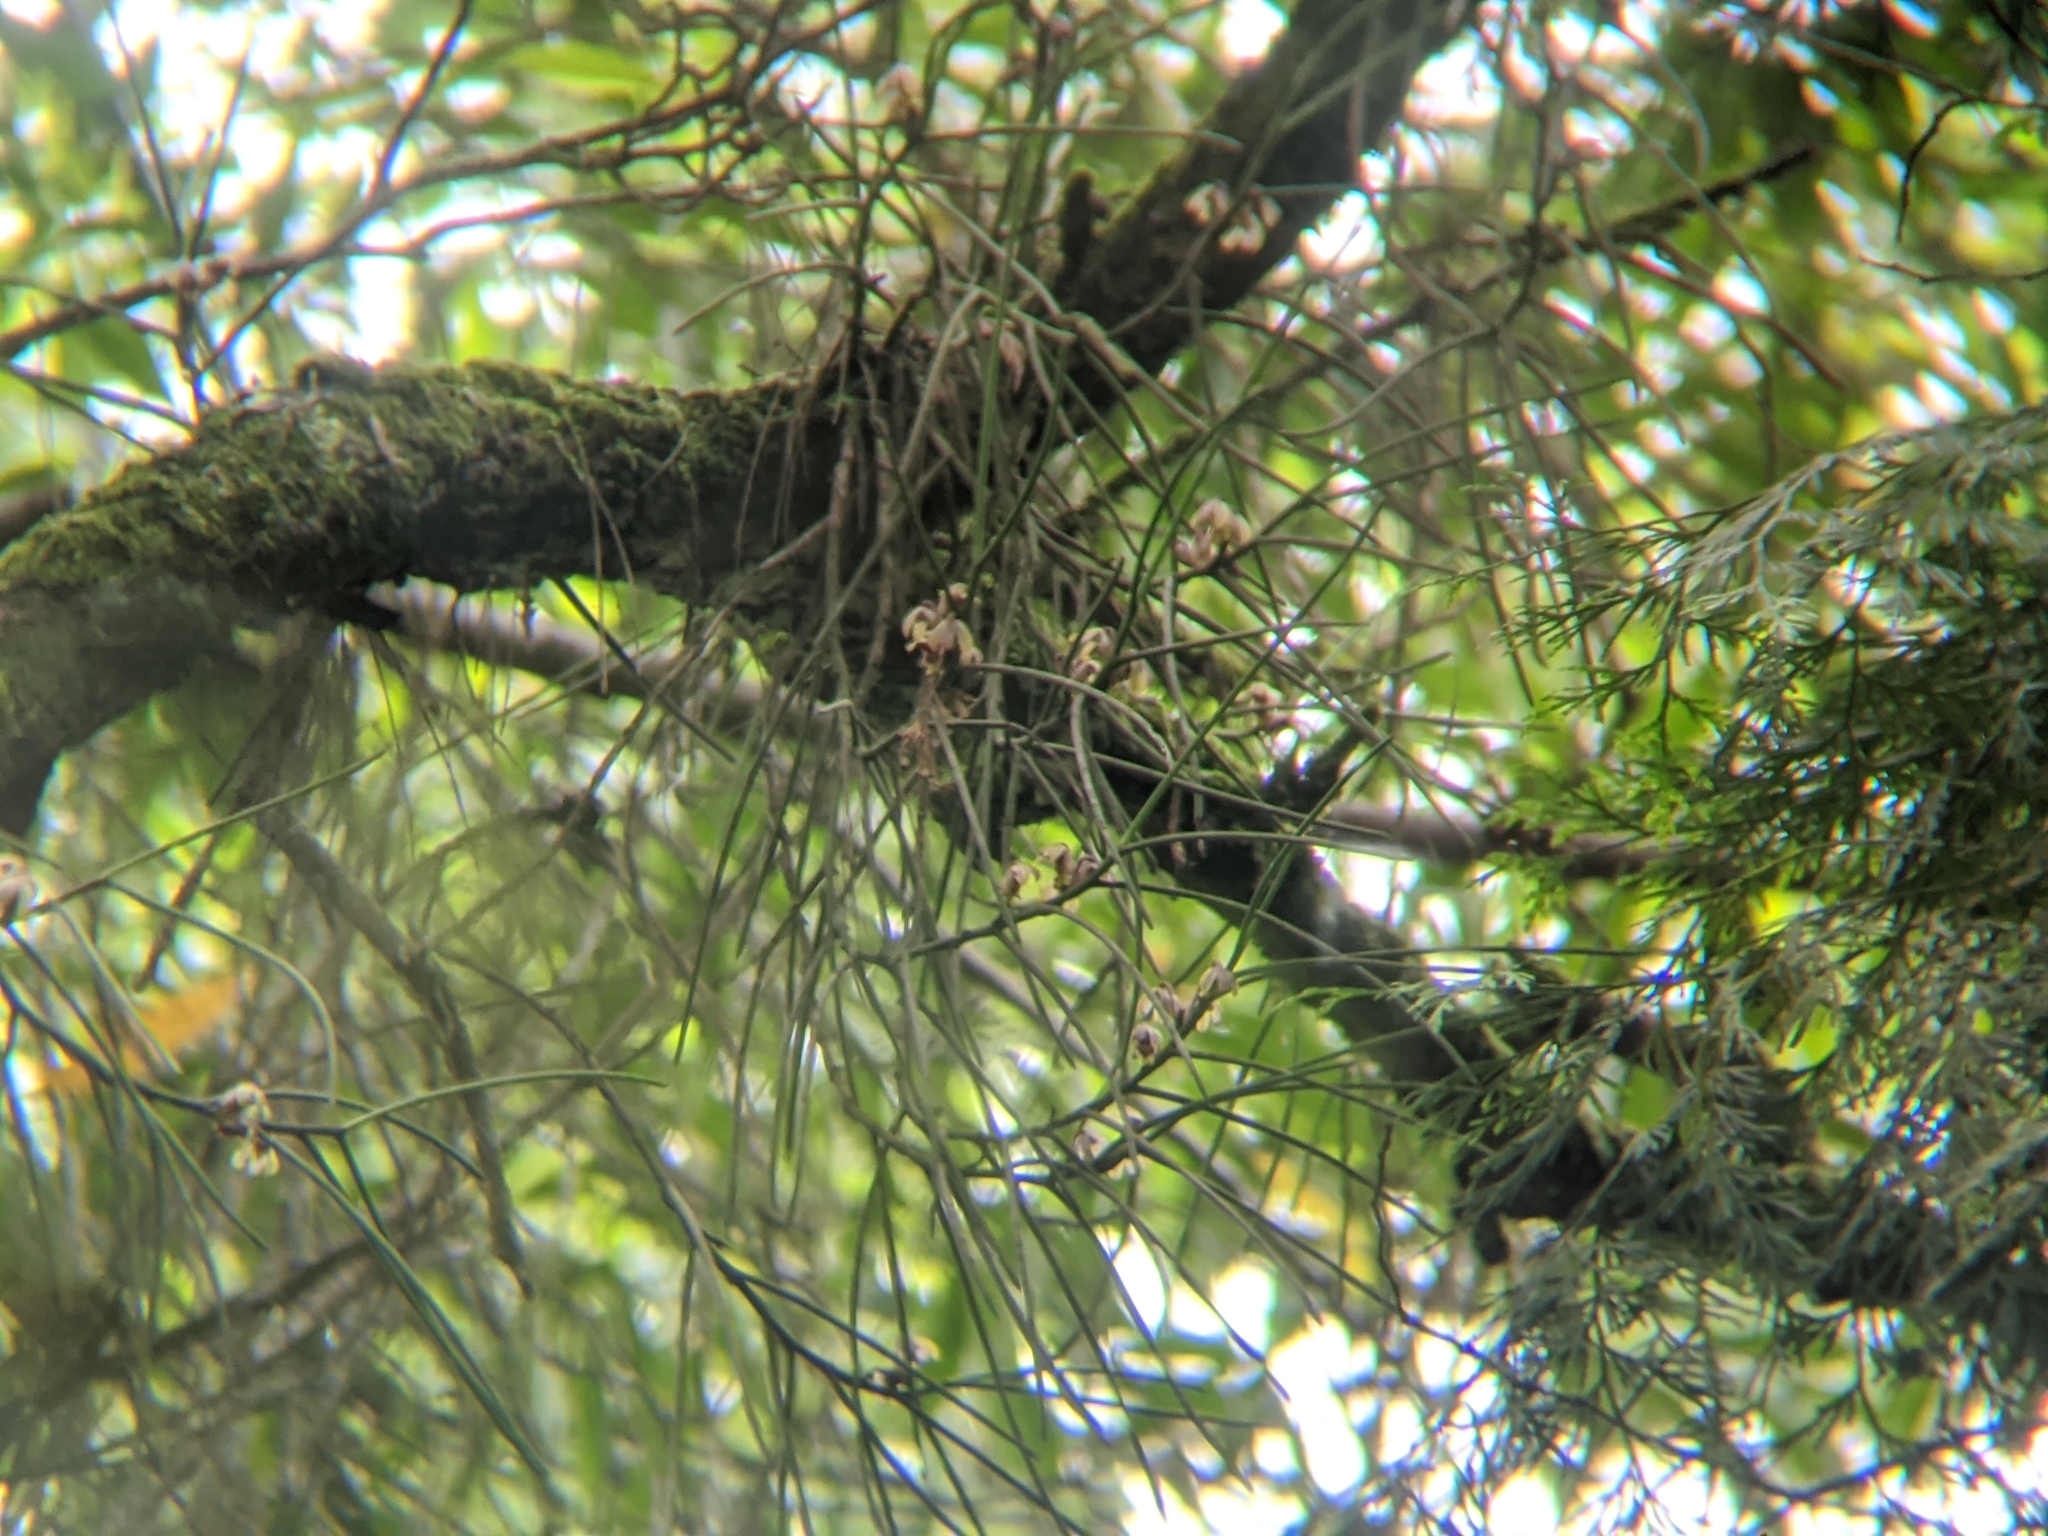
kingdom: Plantae
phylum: Tracheophyta
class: Liliopsida
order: Asparagales
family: Orchidaceae
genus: Luisia
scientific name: Luisia teres
